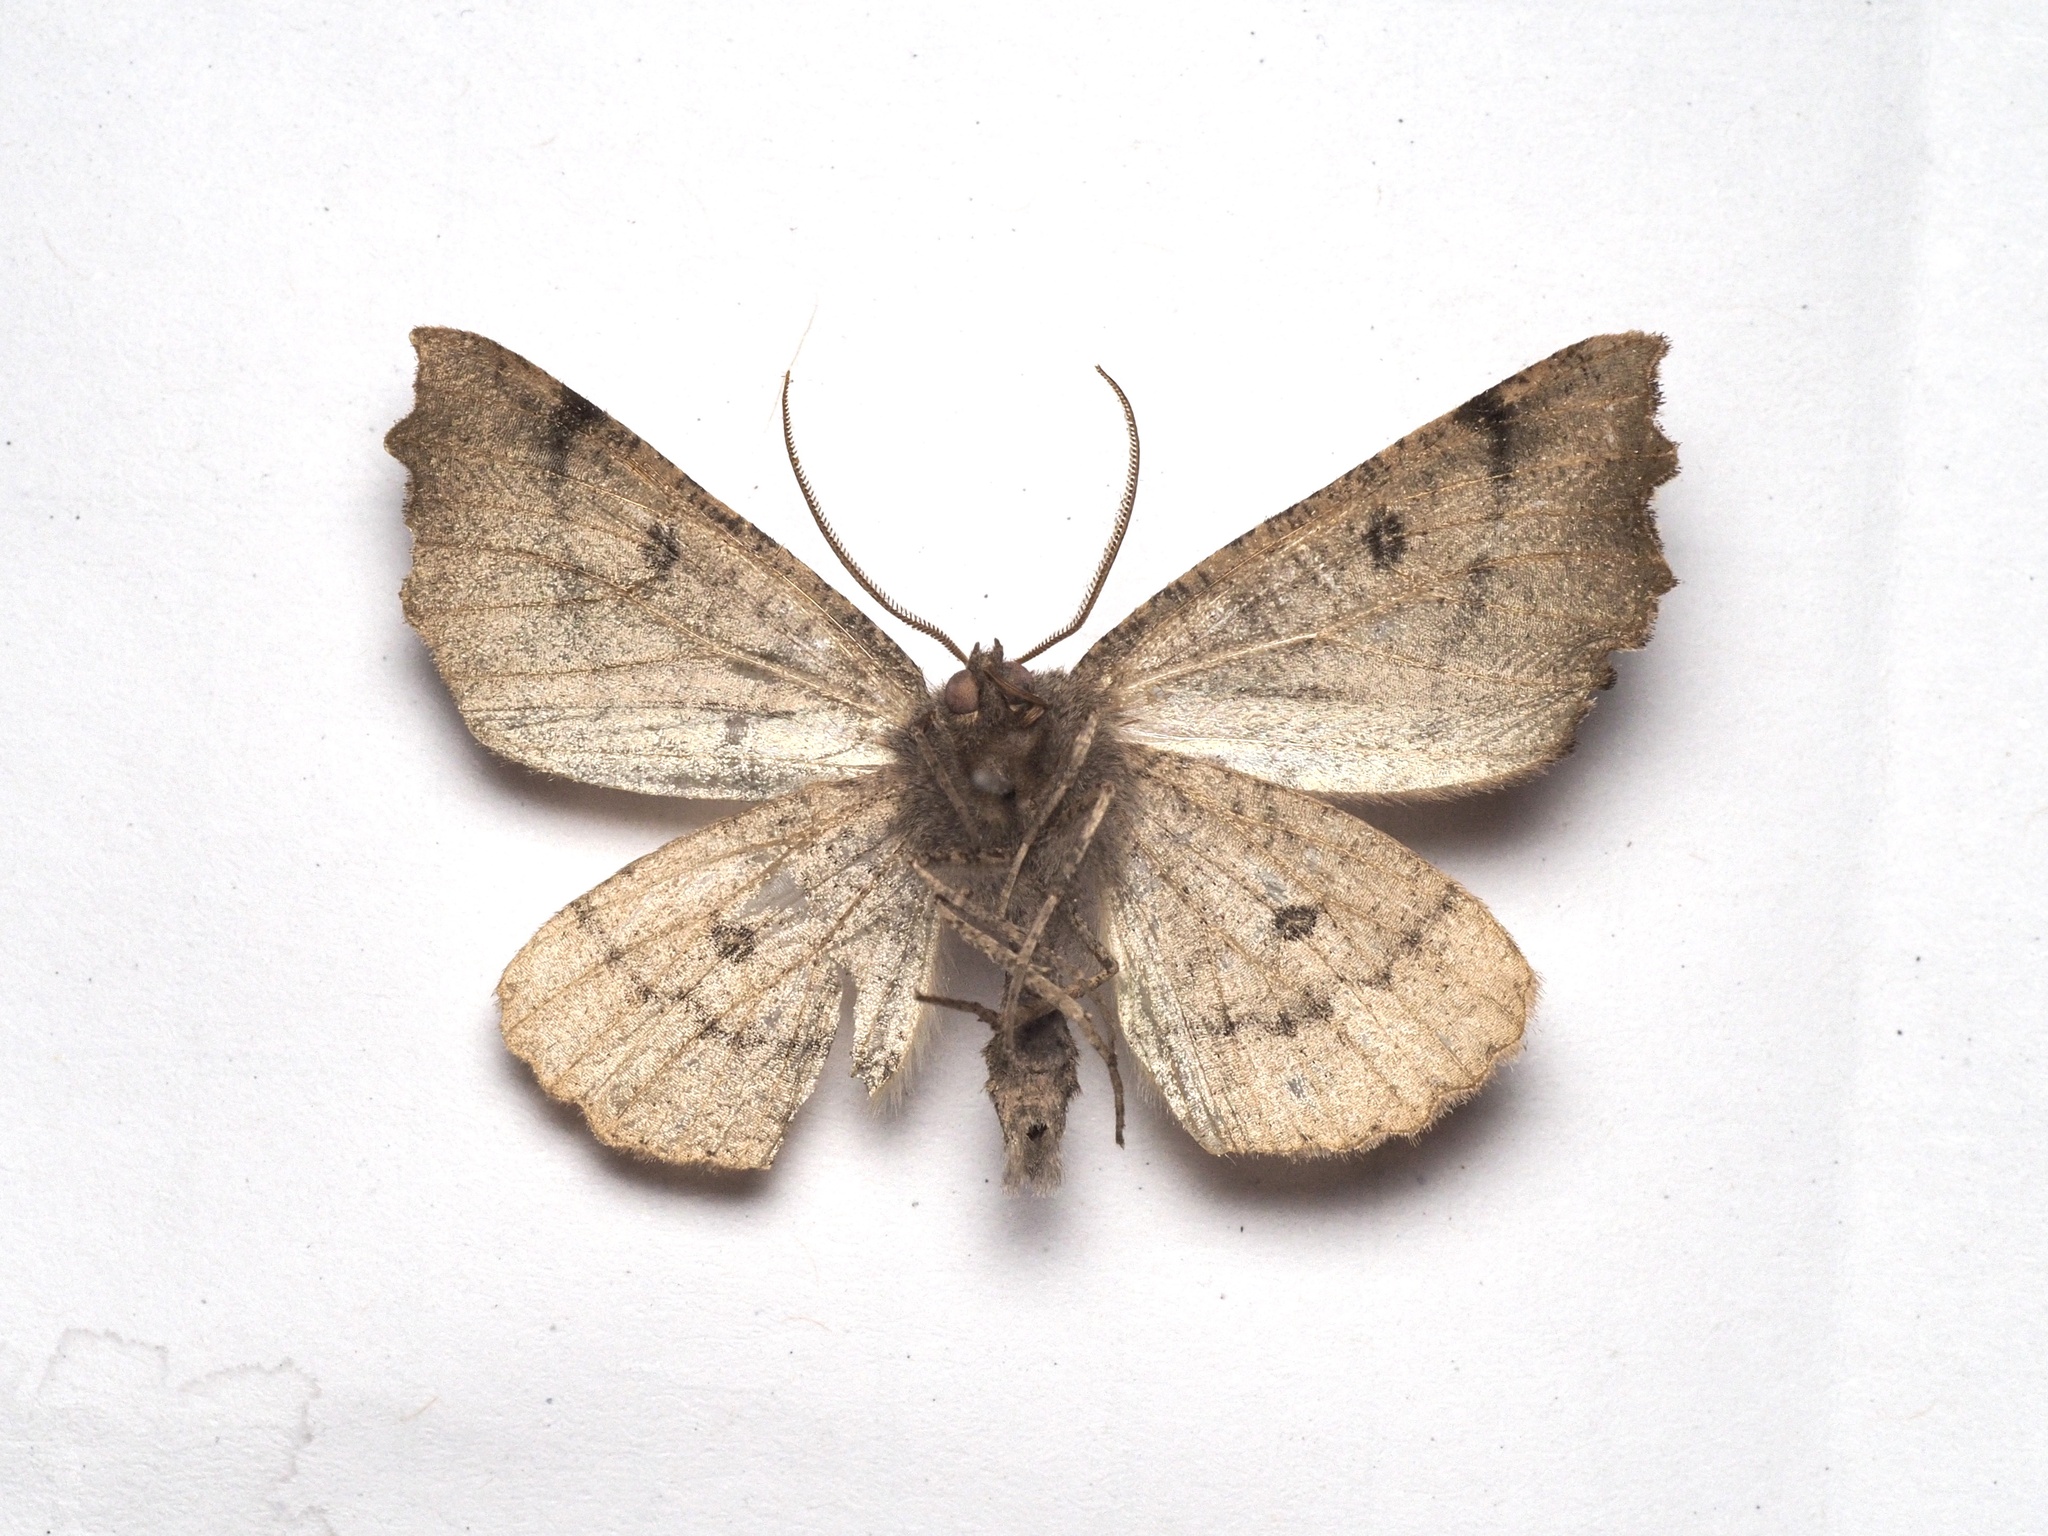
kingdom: Animalia
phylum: Arthropoda
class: Insecta
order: Lepidoptera
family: Geometridae
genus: Odontopera
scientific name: Odontopera bidentata
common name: Scalloped hazel
